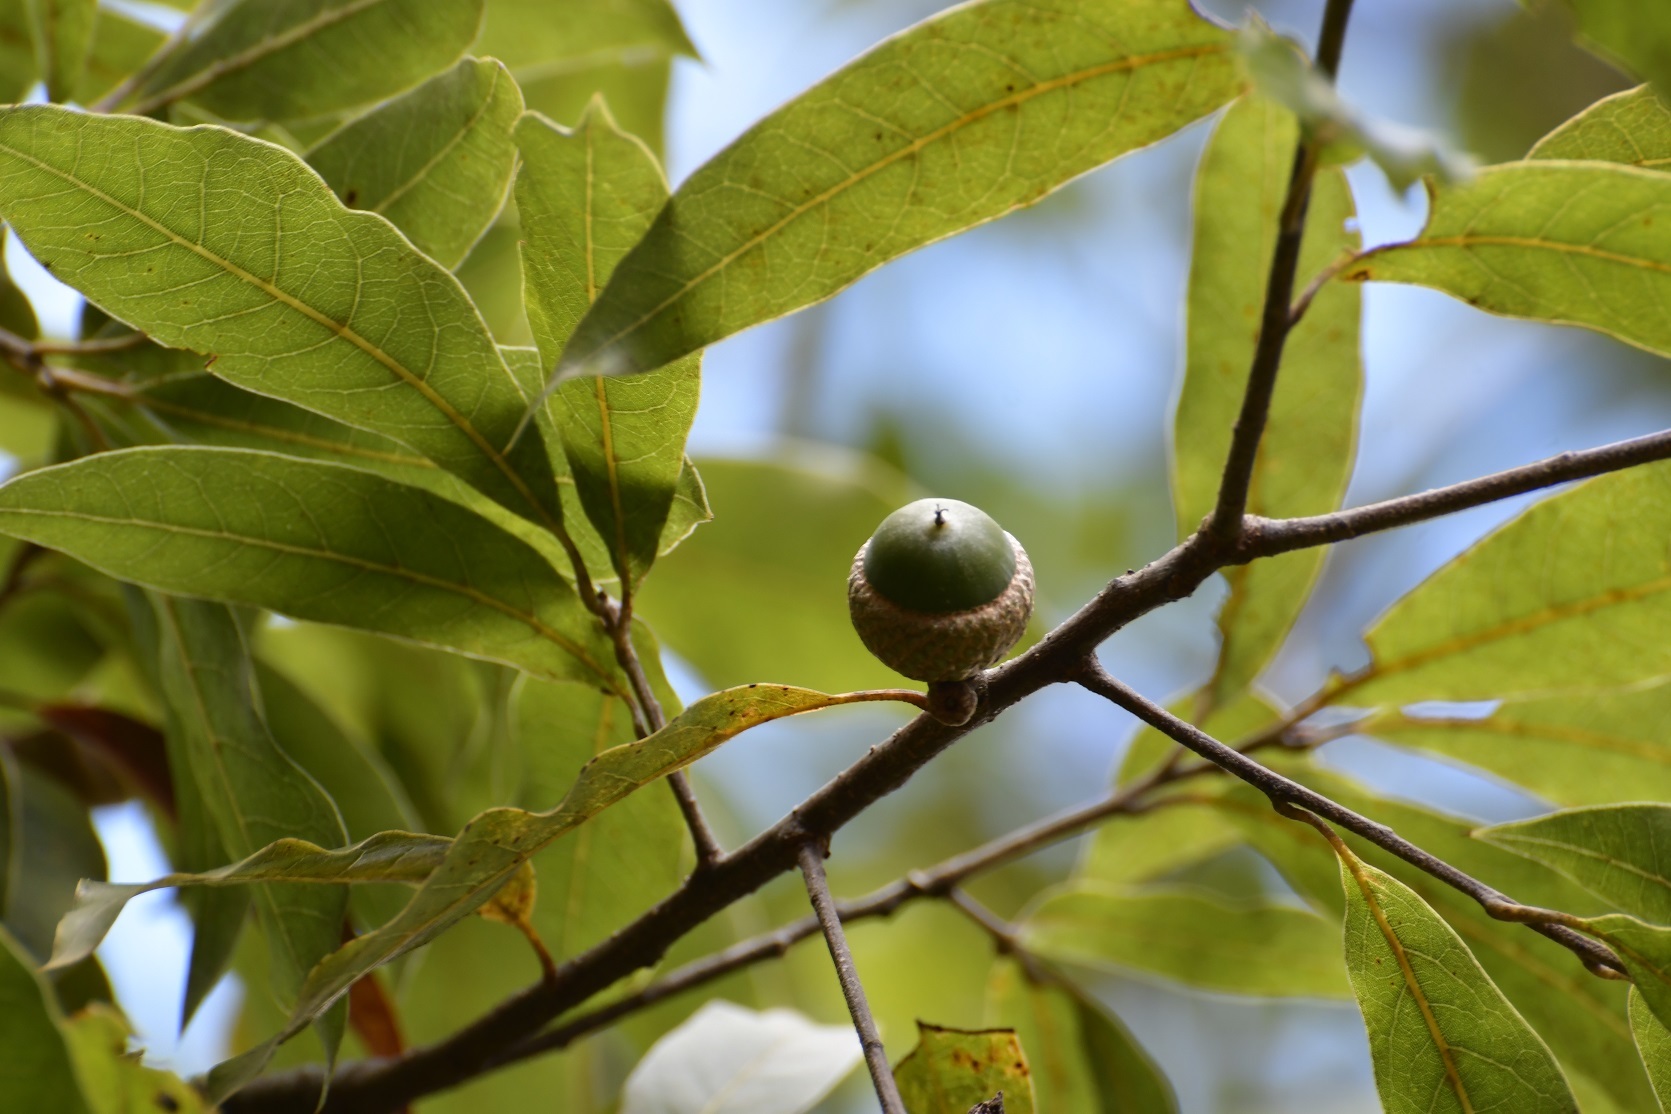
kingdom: Plantae
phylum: Tracheophyta
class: Magnoliopsida
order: Fagales
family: Fagaceae
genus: Quercus
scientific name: Quercus acatenangensis
